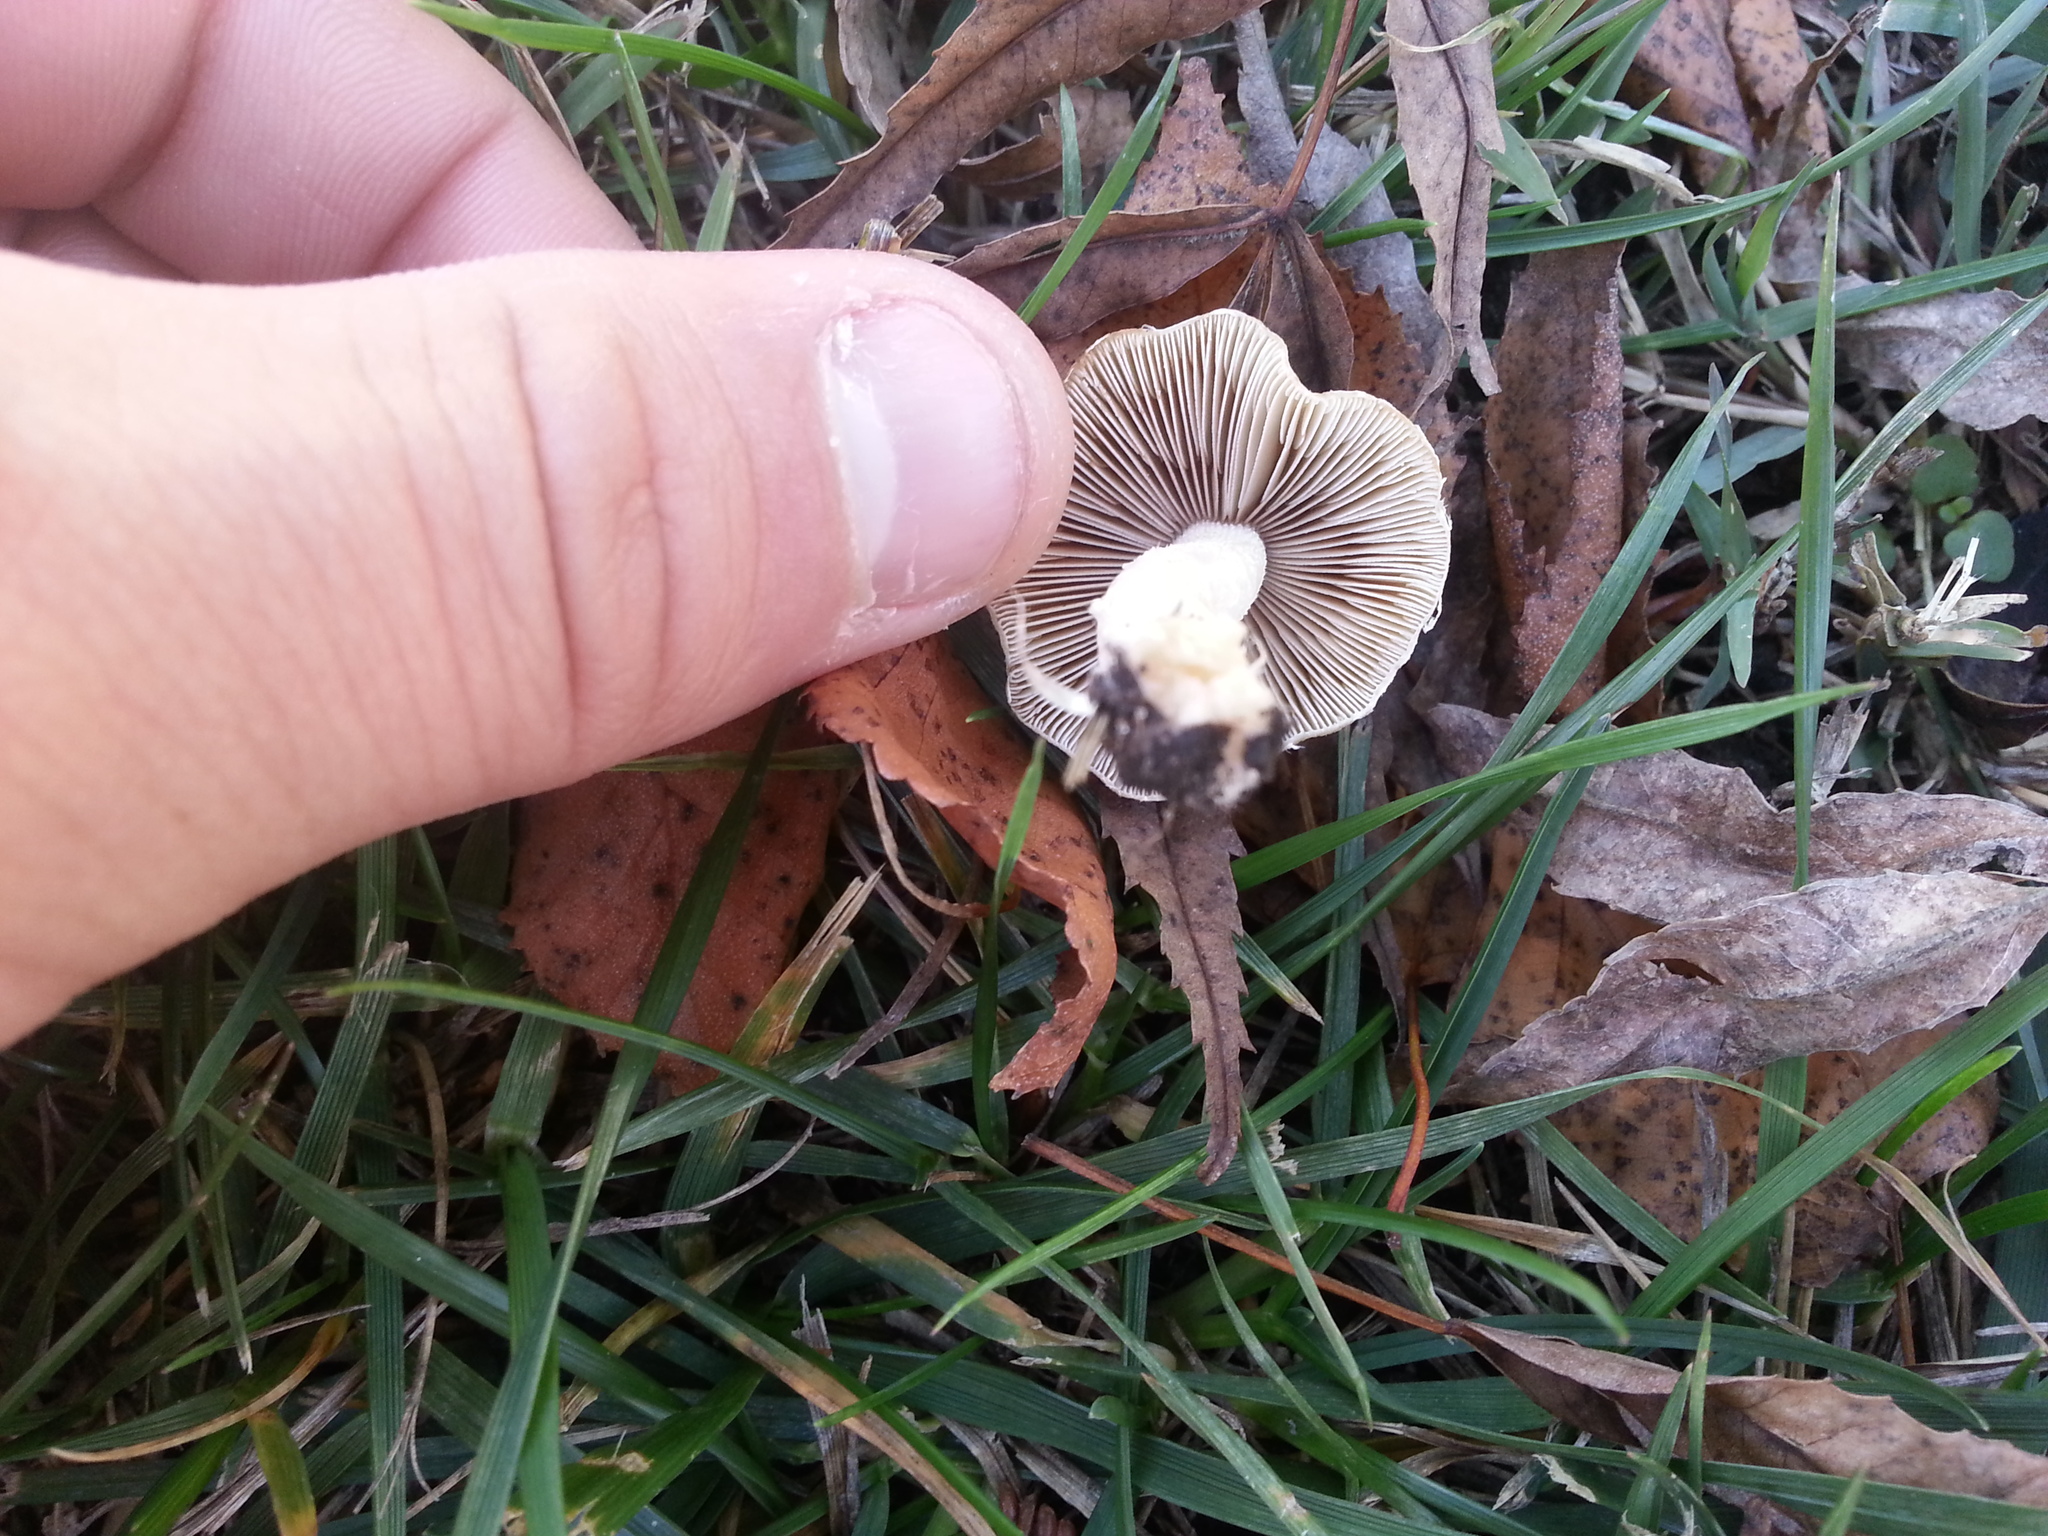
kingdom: Fungi
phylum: Basidiomycota
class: Agaricomycetes
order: Agaricales
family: Psathyrellaceae
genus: Candolleomyces
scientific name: Candolleomyces candolleanus
